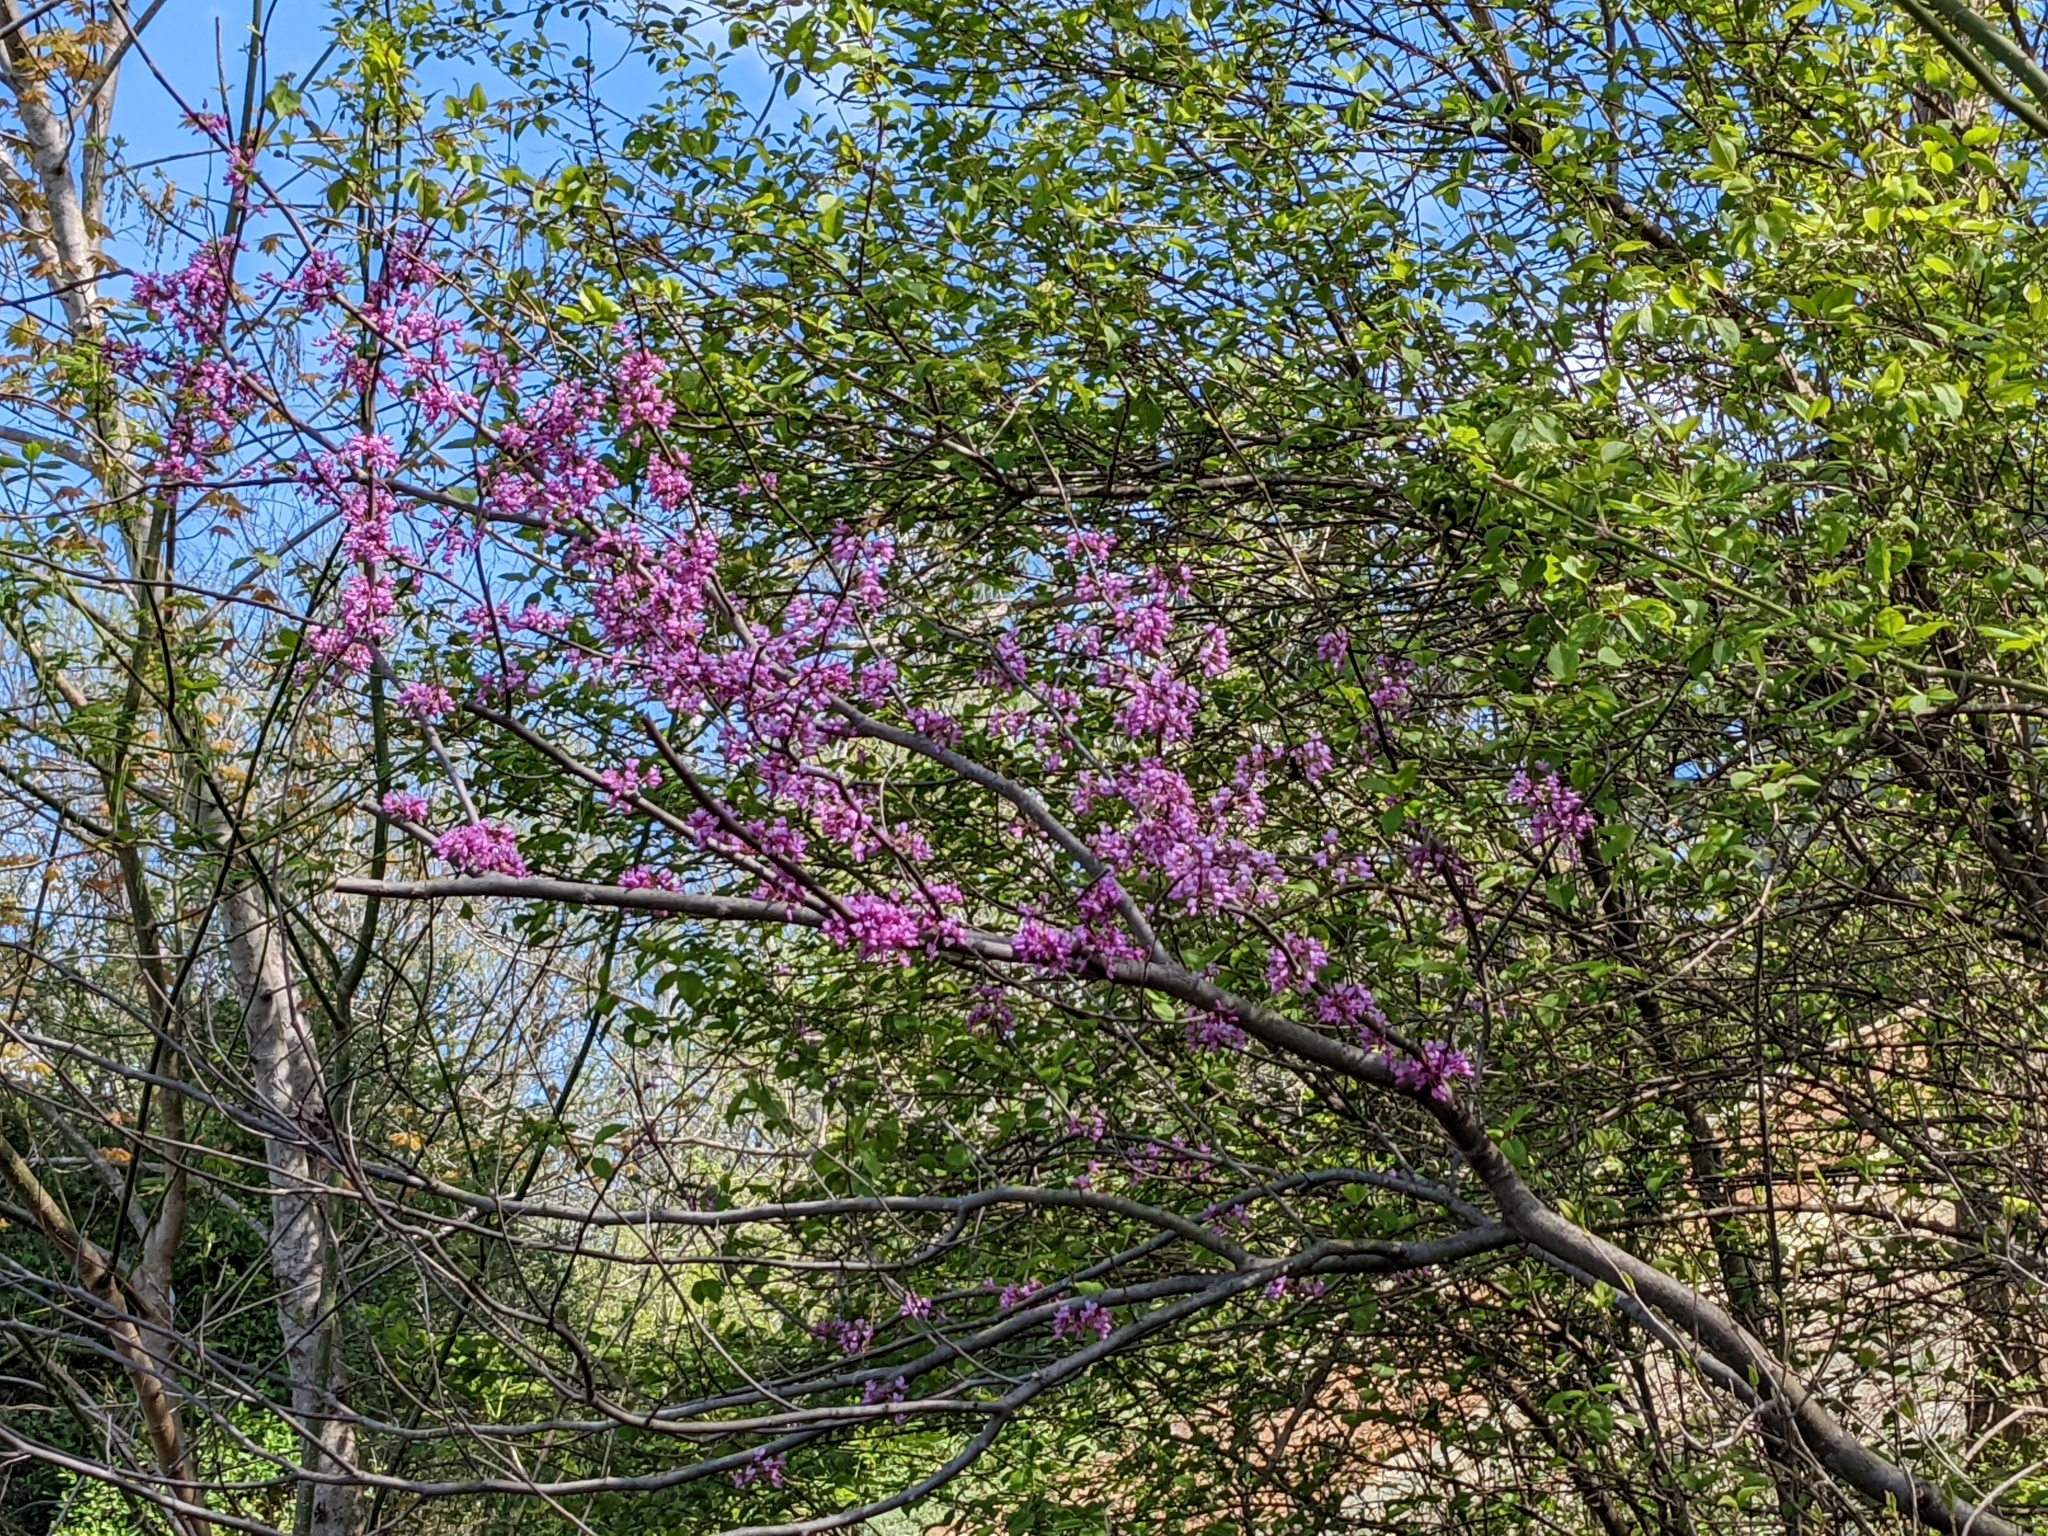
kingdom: Plantae
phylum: Tracheophyta
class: Magnoliopsida
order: Fabales
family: Fabaceae
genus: Cercis
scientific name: Cercis canadensis
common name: Eastern redbud
